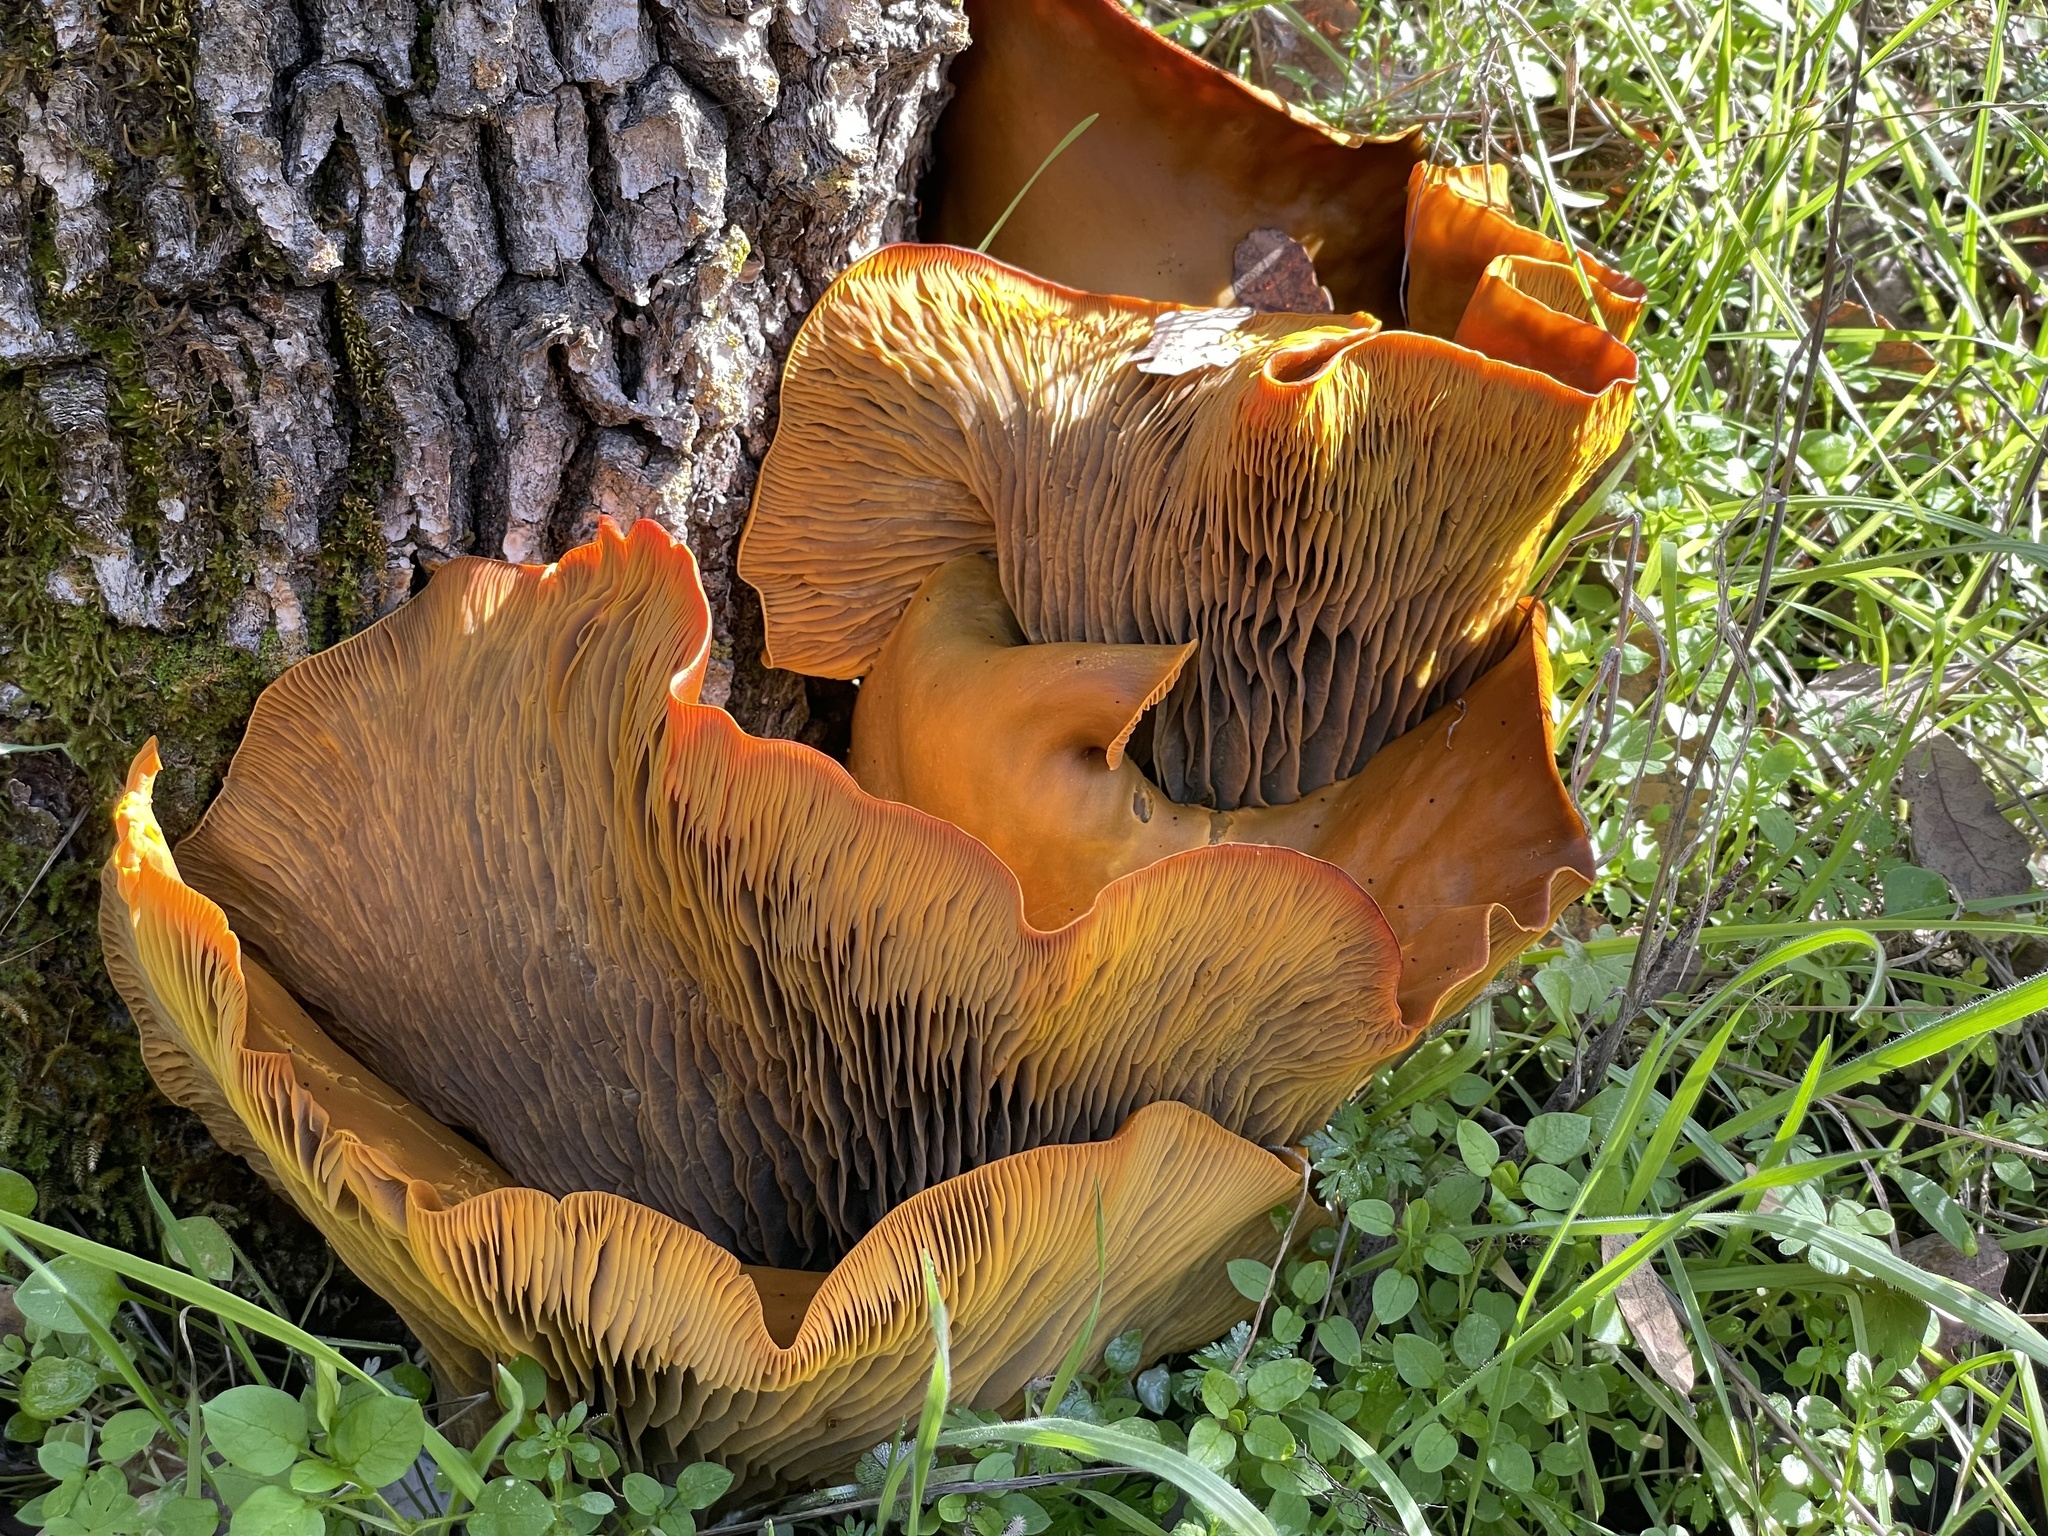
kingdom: Fungi
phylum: Basidiomycota
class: Agaricomycetes
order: Agaricales
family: Omphalotaceae
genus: Omphalotus
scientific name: Omphalotus olivascens
